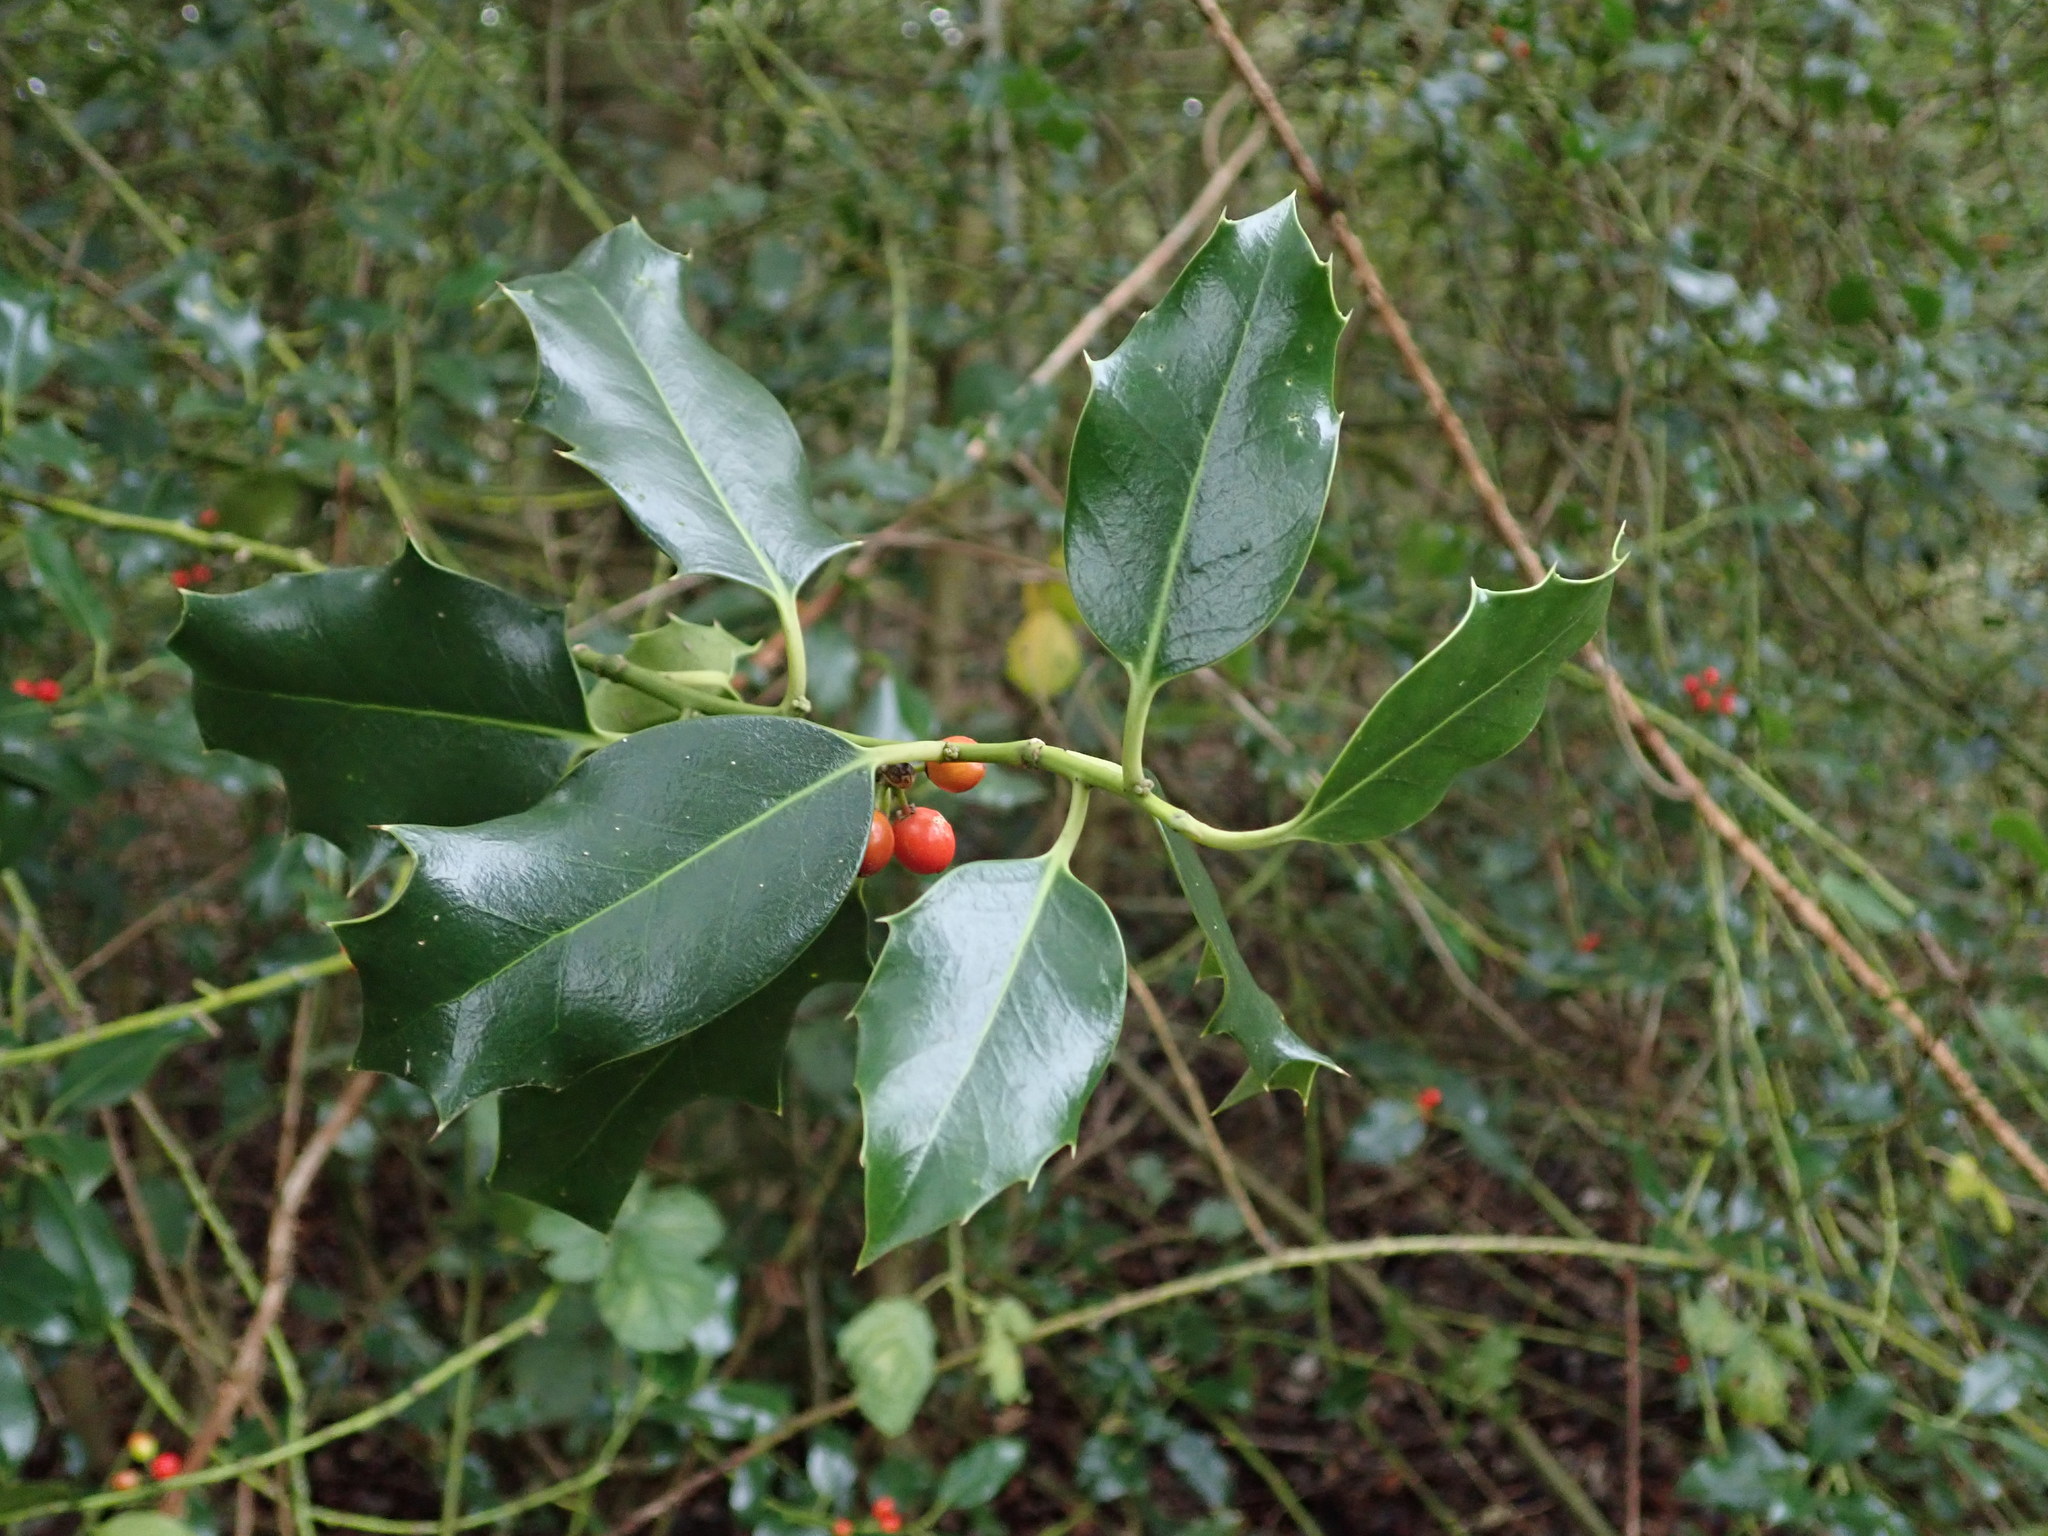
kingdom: Plantae
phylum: Tracheophyta
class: Magnoliopsida
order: Aquifoliales
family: Aquifoliaceae
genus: Ilex
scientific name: Ilex aquifolium
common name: English holly
